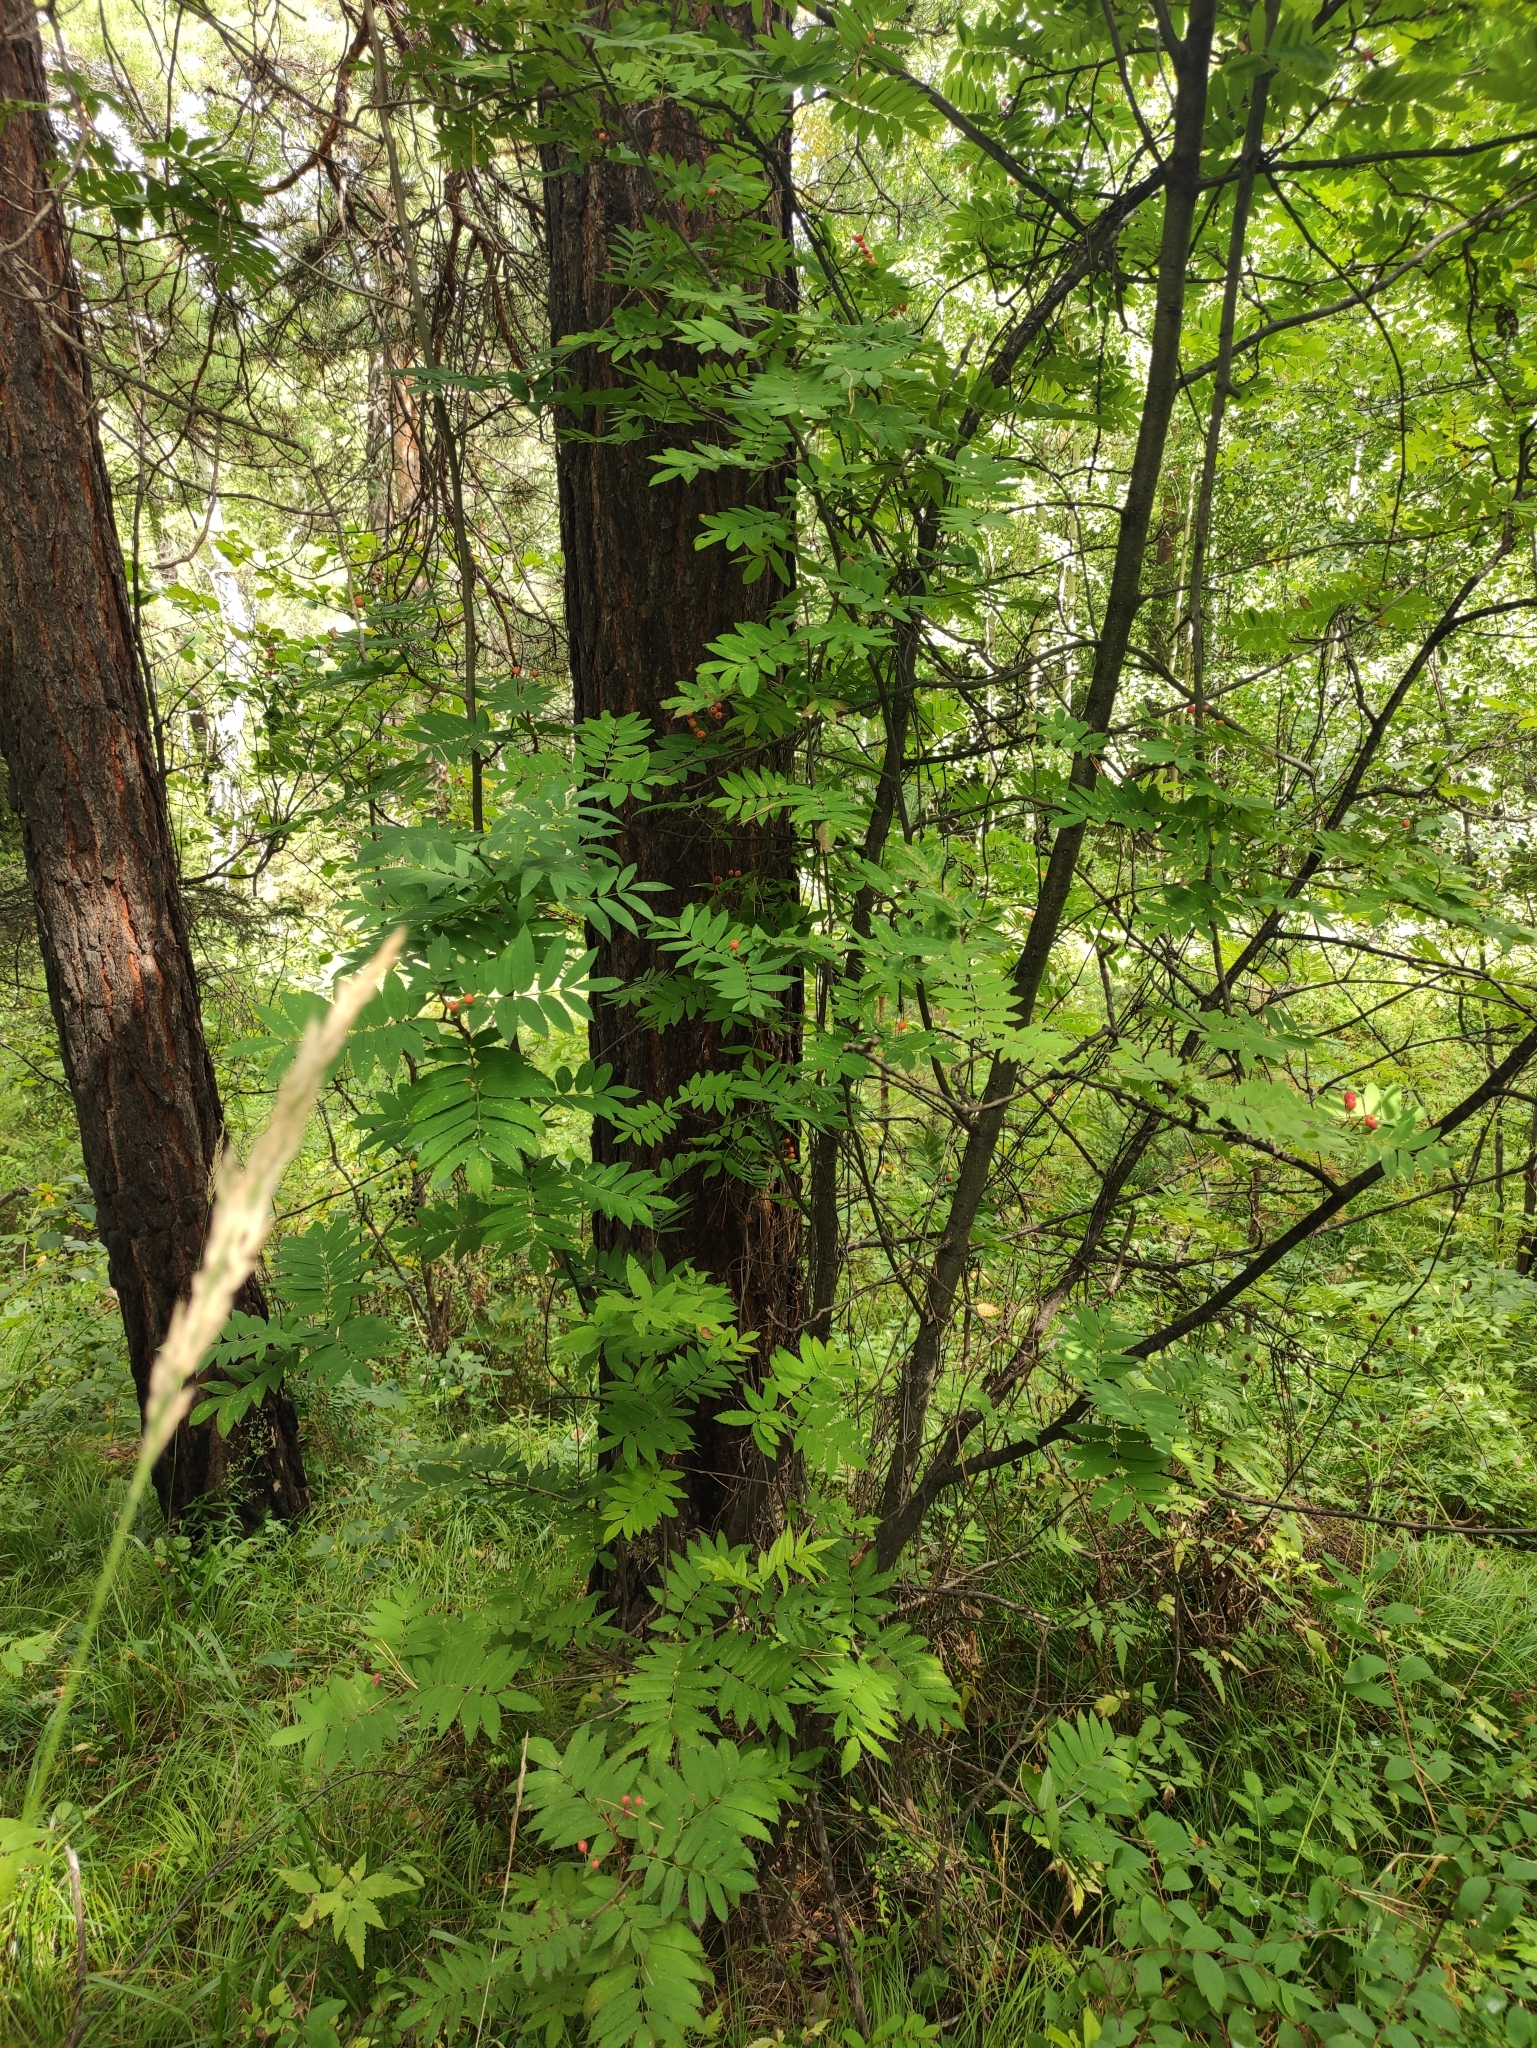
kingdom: Plantae
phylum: Tracheophyta
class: Magnoliopsida
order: Rosales
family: Rosaceae
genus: Sorbus
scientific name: Sorbus aucuparia
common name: Rowan
